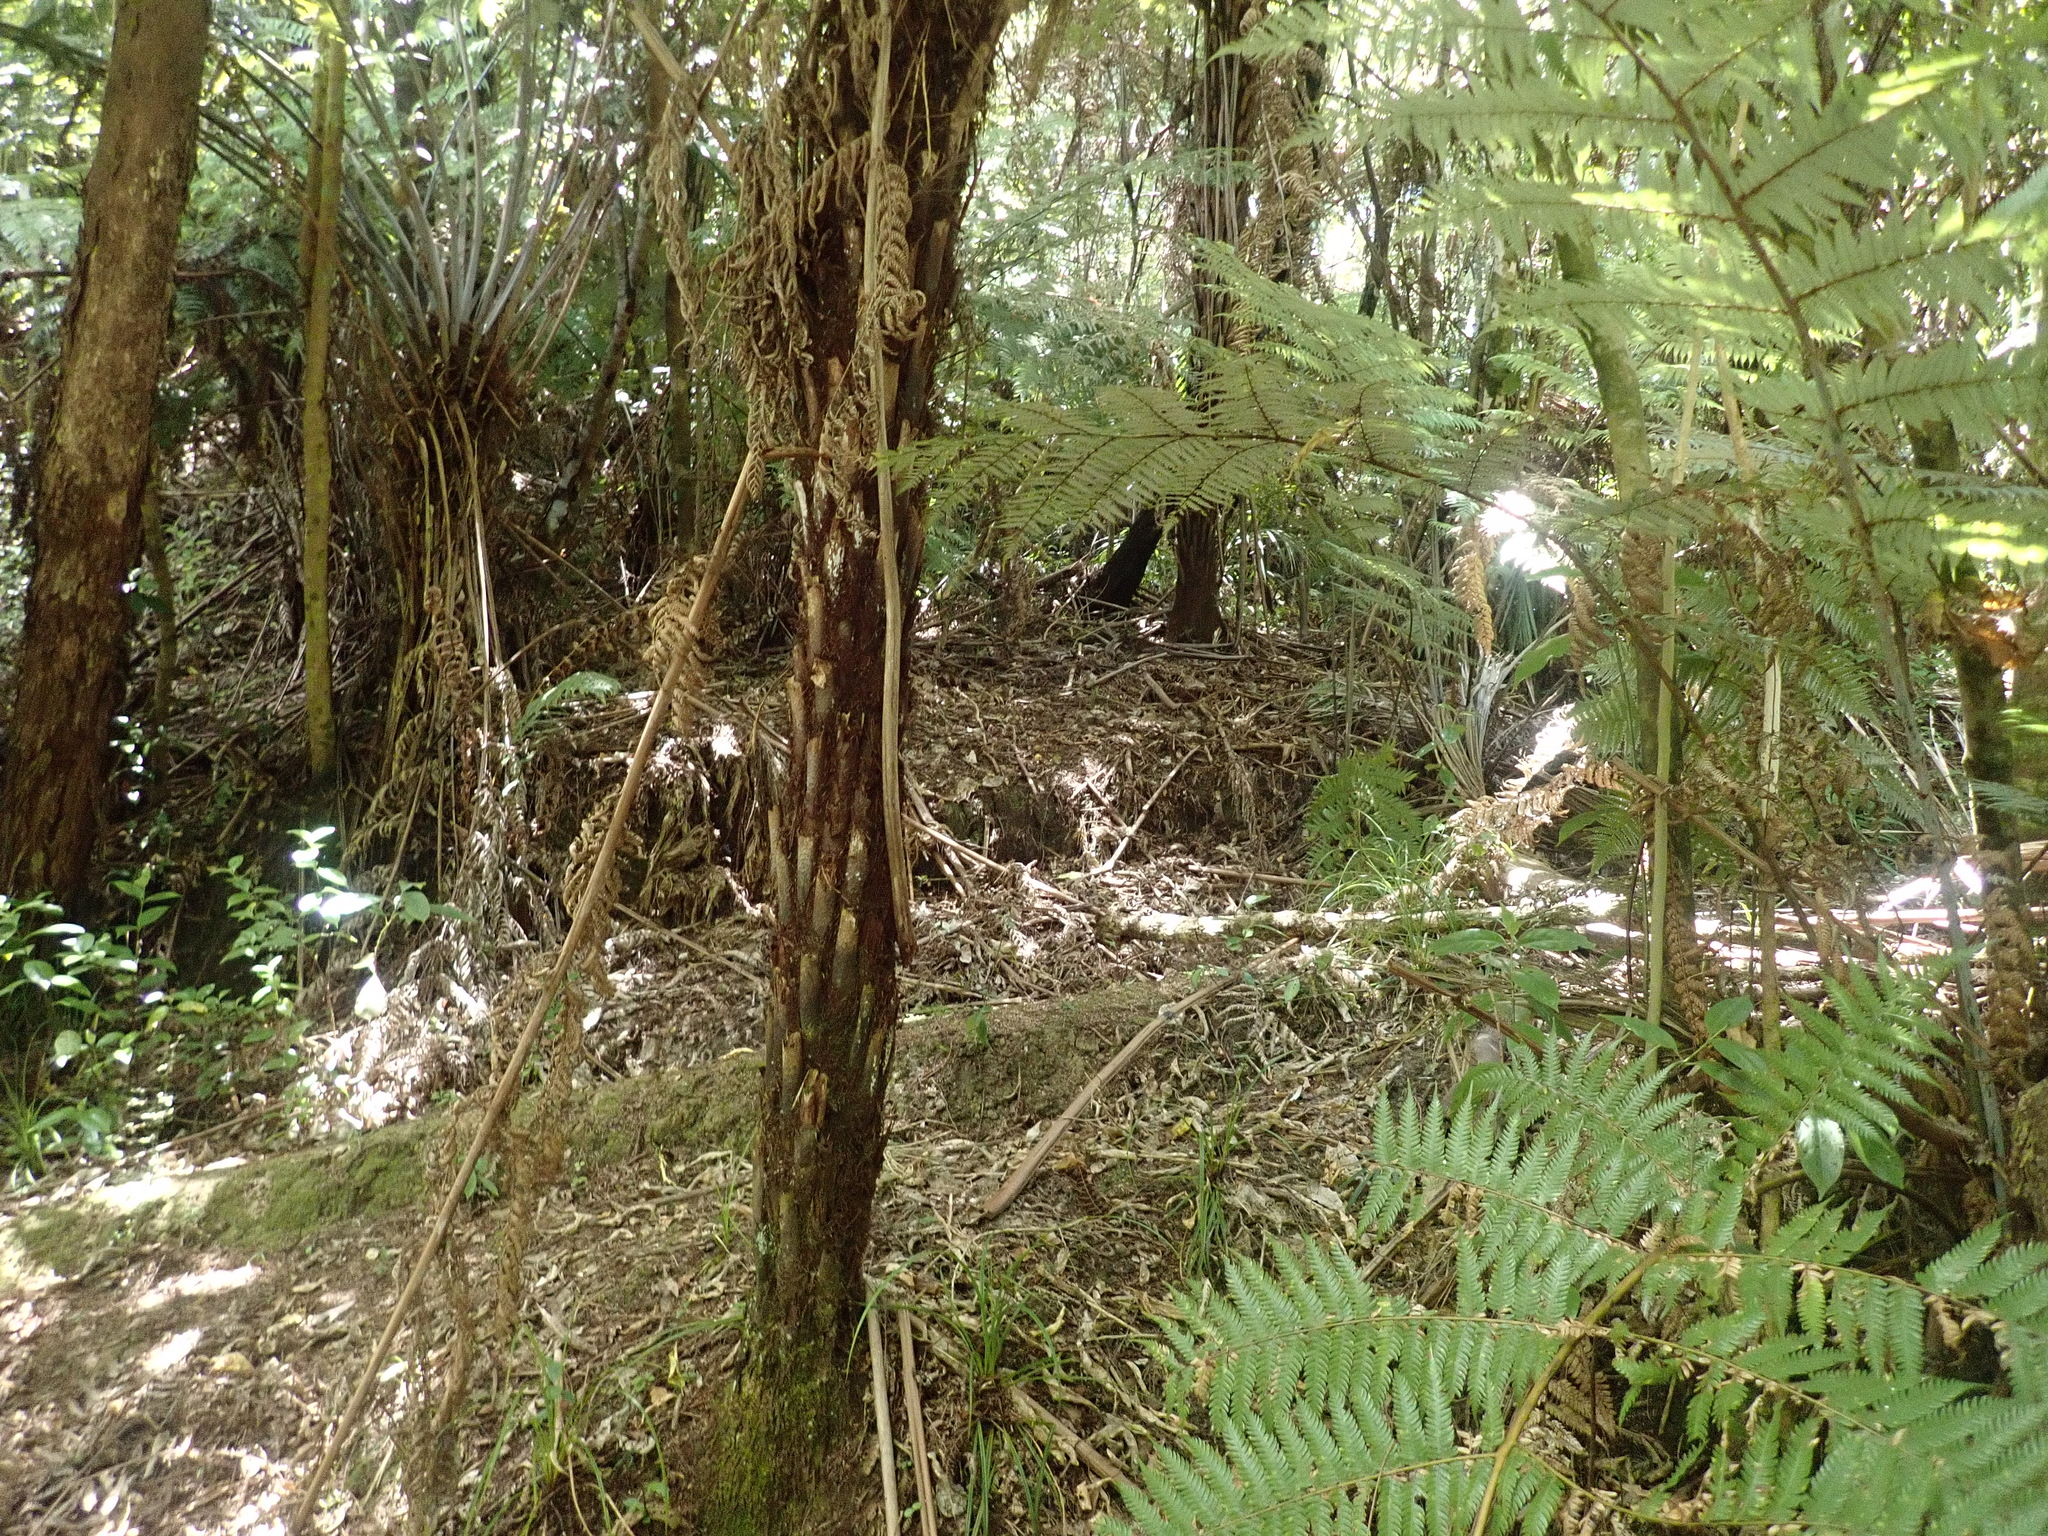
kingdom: Plantae
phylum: Tracheophyta
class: Polypodiopsida
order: Cyatheales
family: Cyatheaceae
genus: Alsophila
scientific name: Alsophila dealbata
